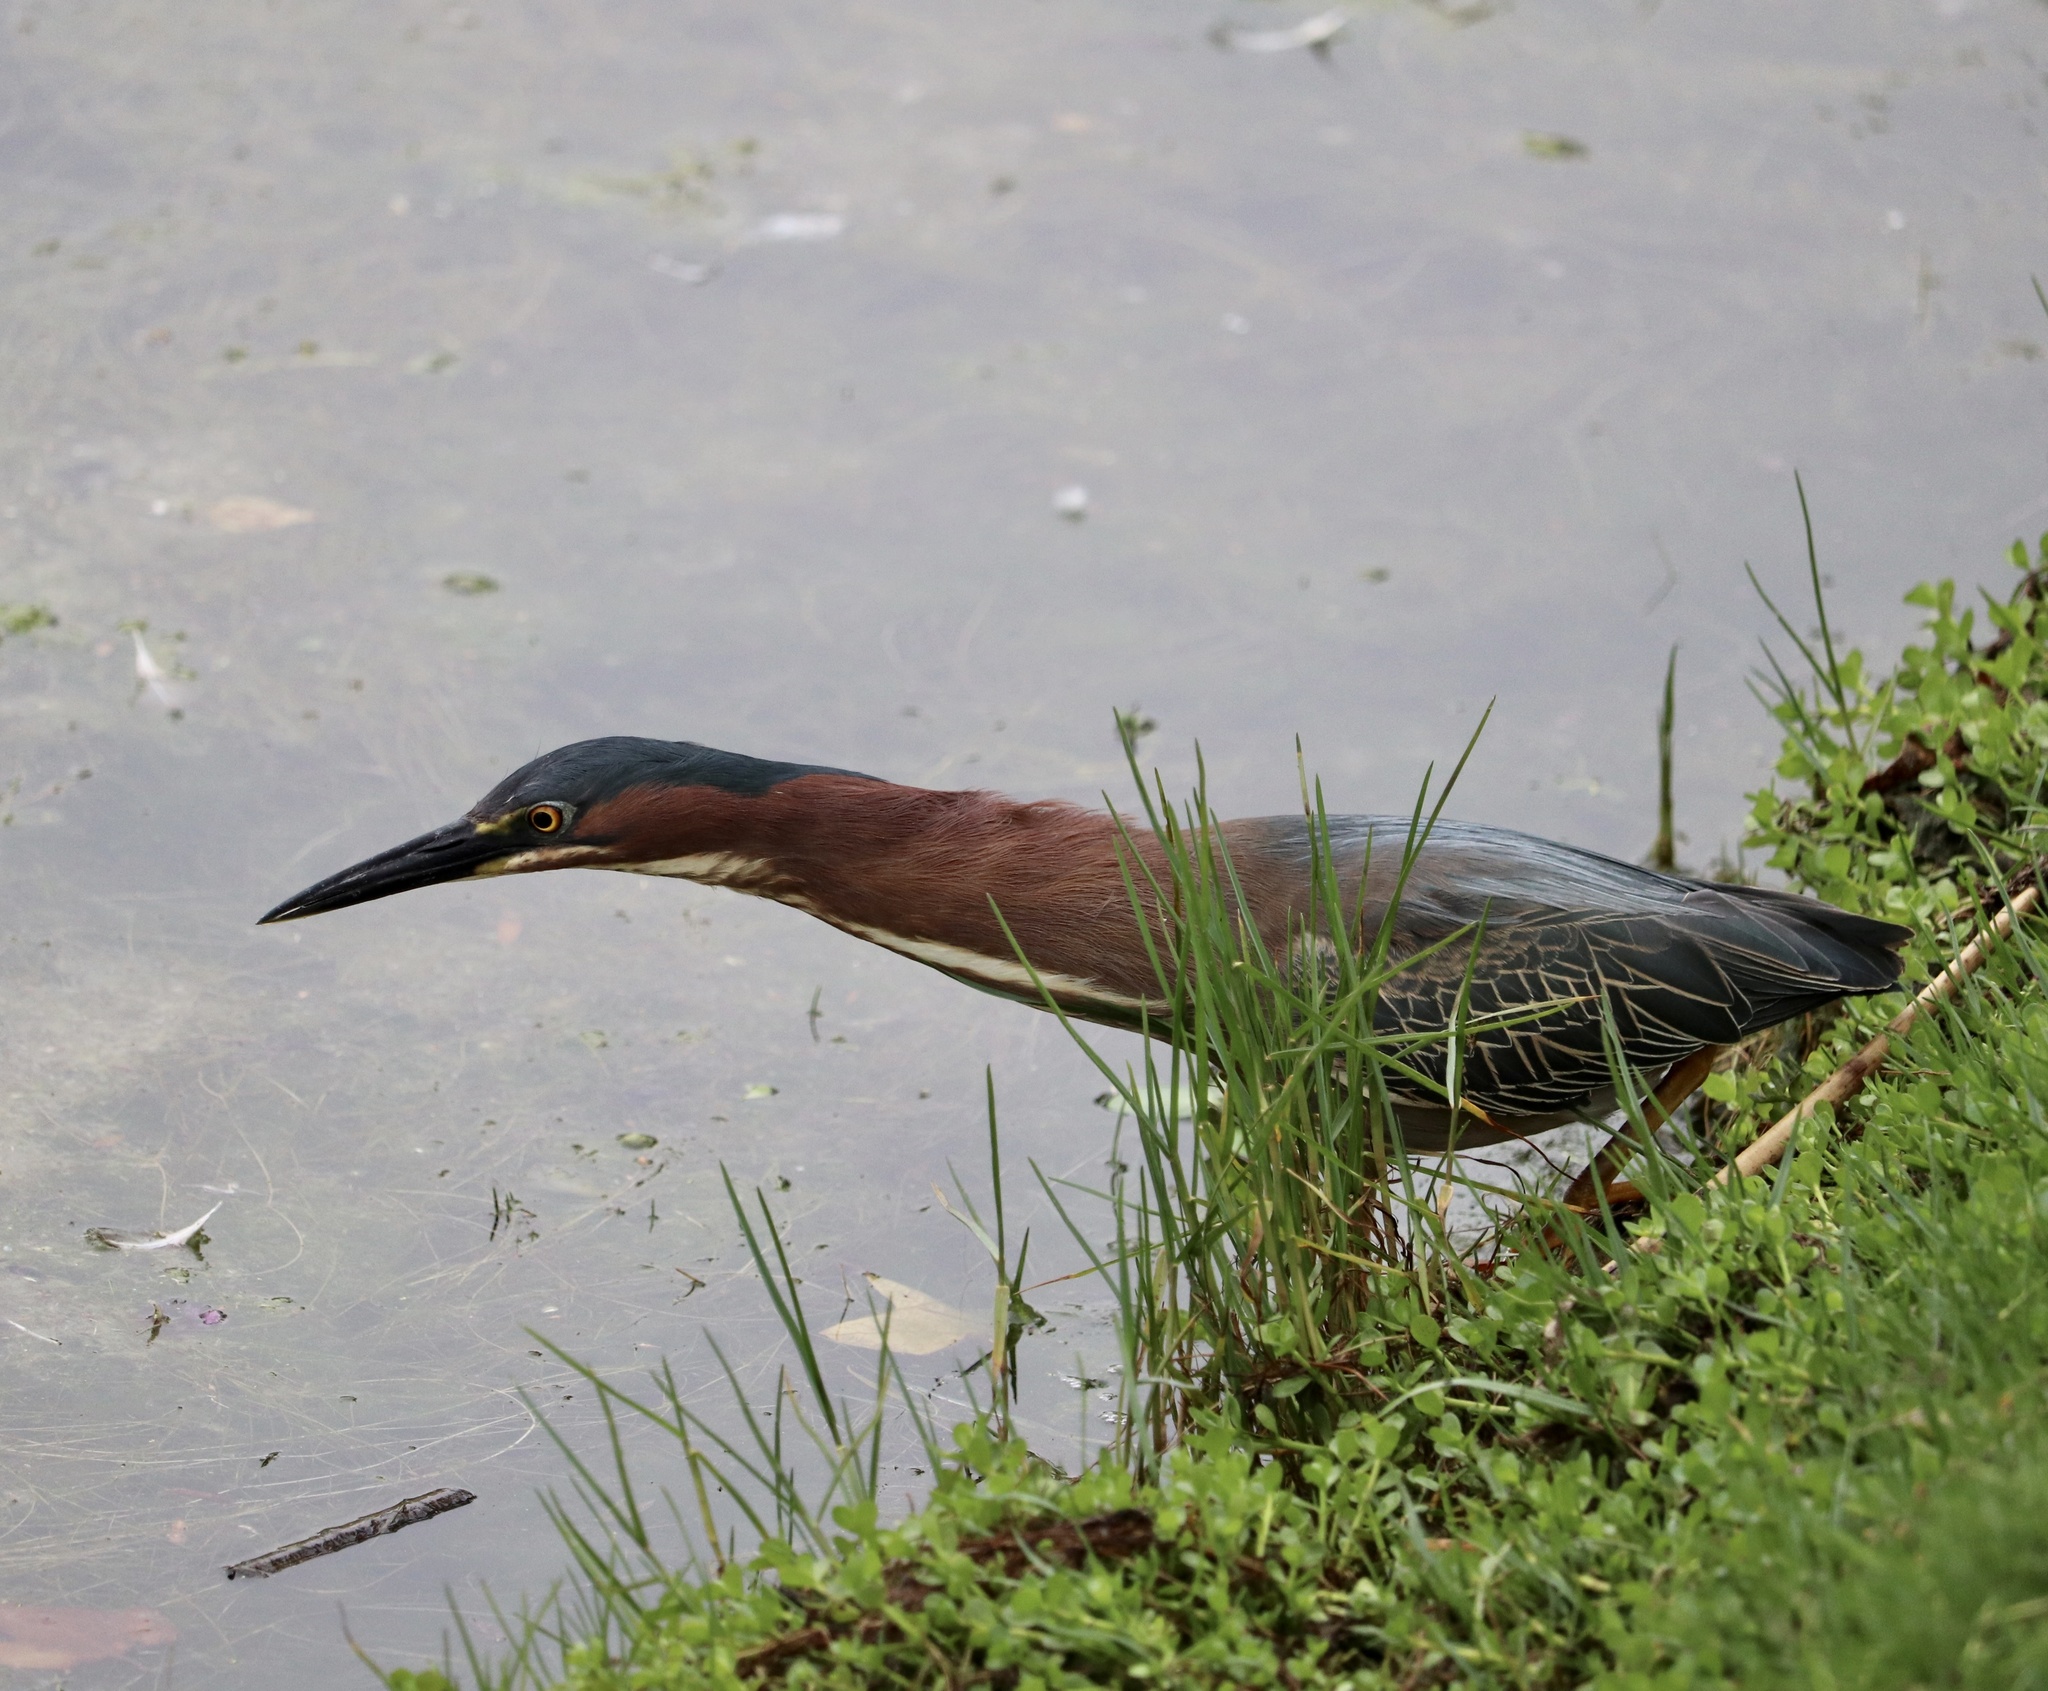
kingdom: Animalia
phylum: Chordata
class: Aves
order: Pelecaniformes
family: Ardeidae
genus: Butorides
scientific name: Butorides virescens
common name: Green heron
